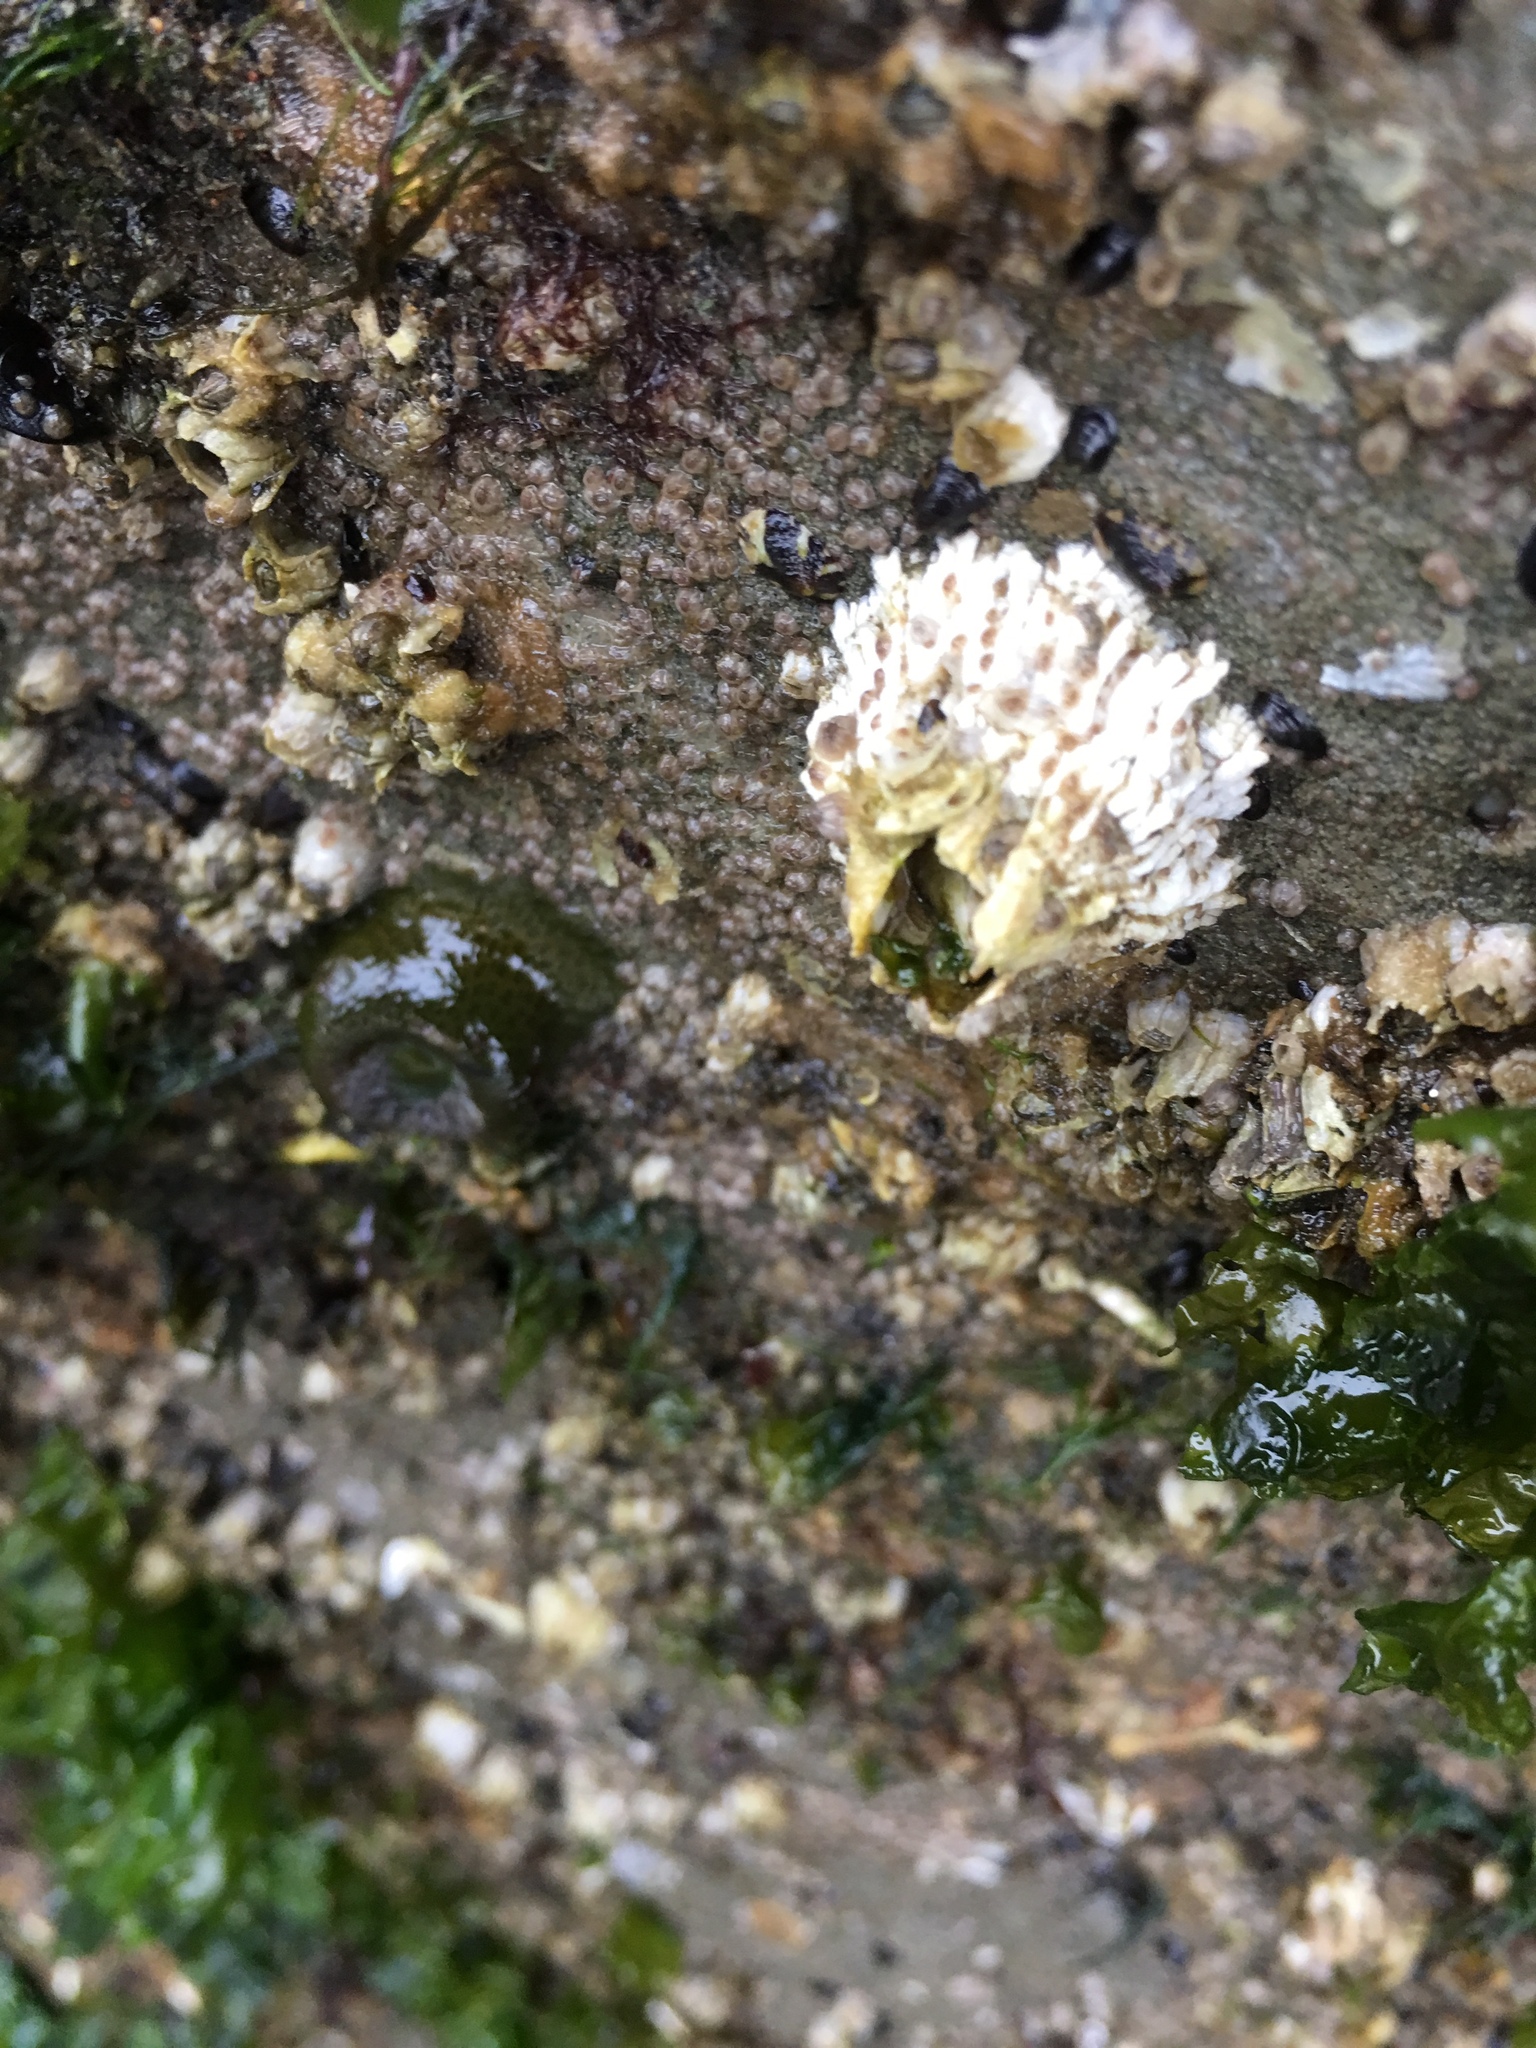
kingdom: Animalia
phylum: Arthropoda
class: Maxillopoda
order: Sessilia
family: Archaeobalanidae
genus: Semibalanus
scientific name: Semibalanus cariosus
